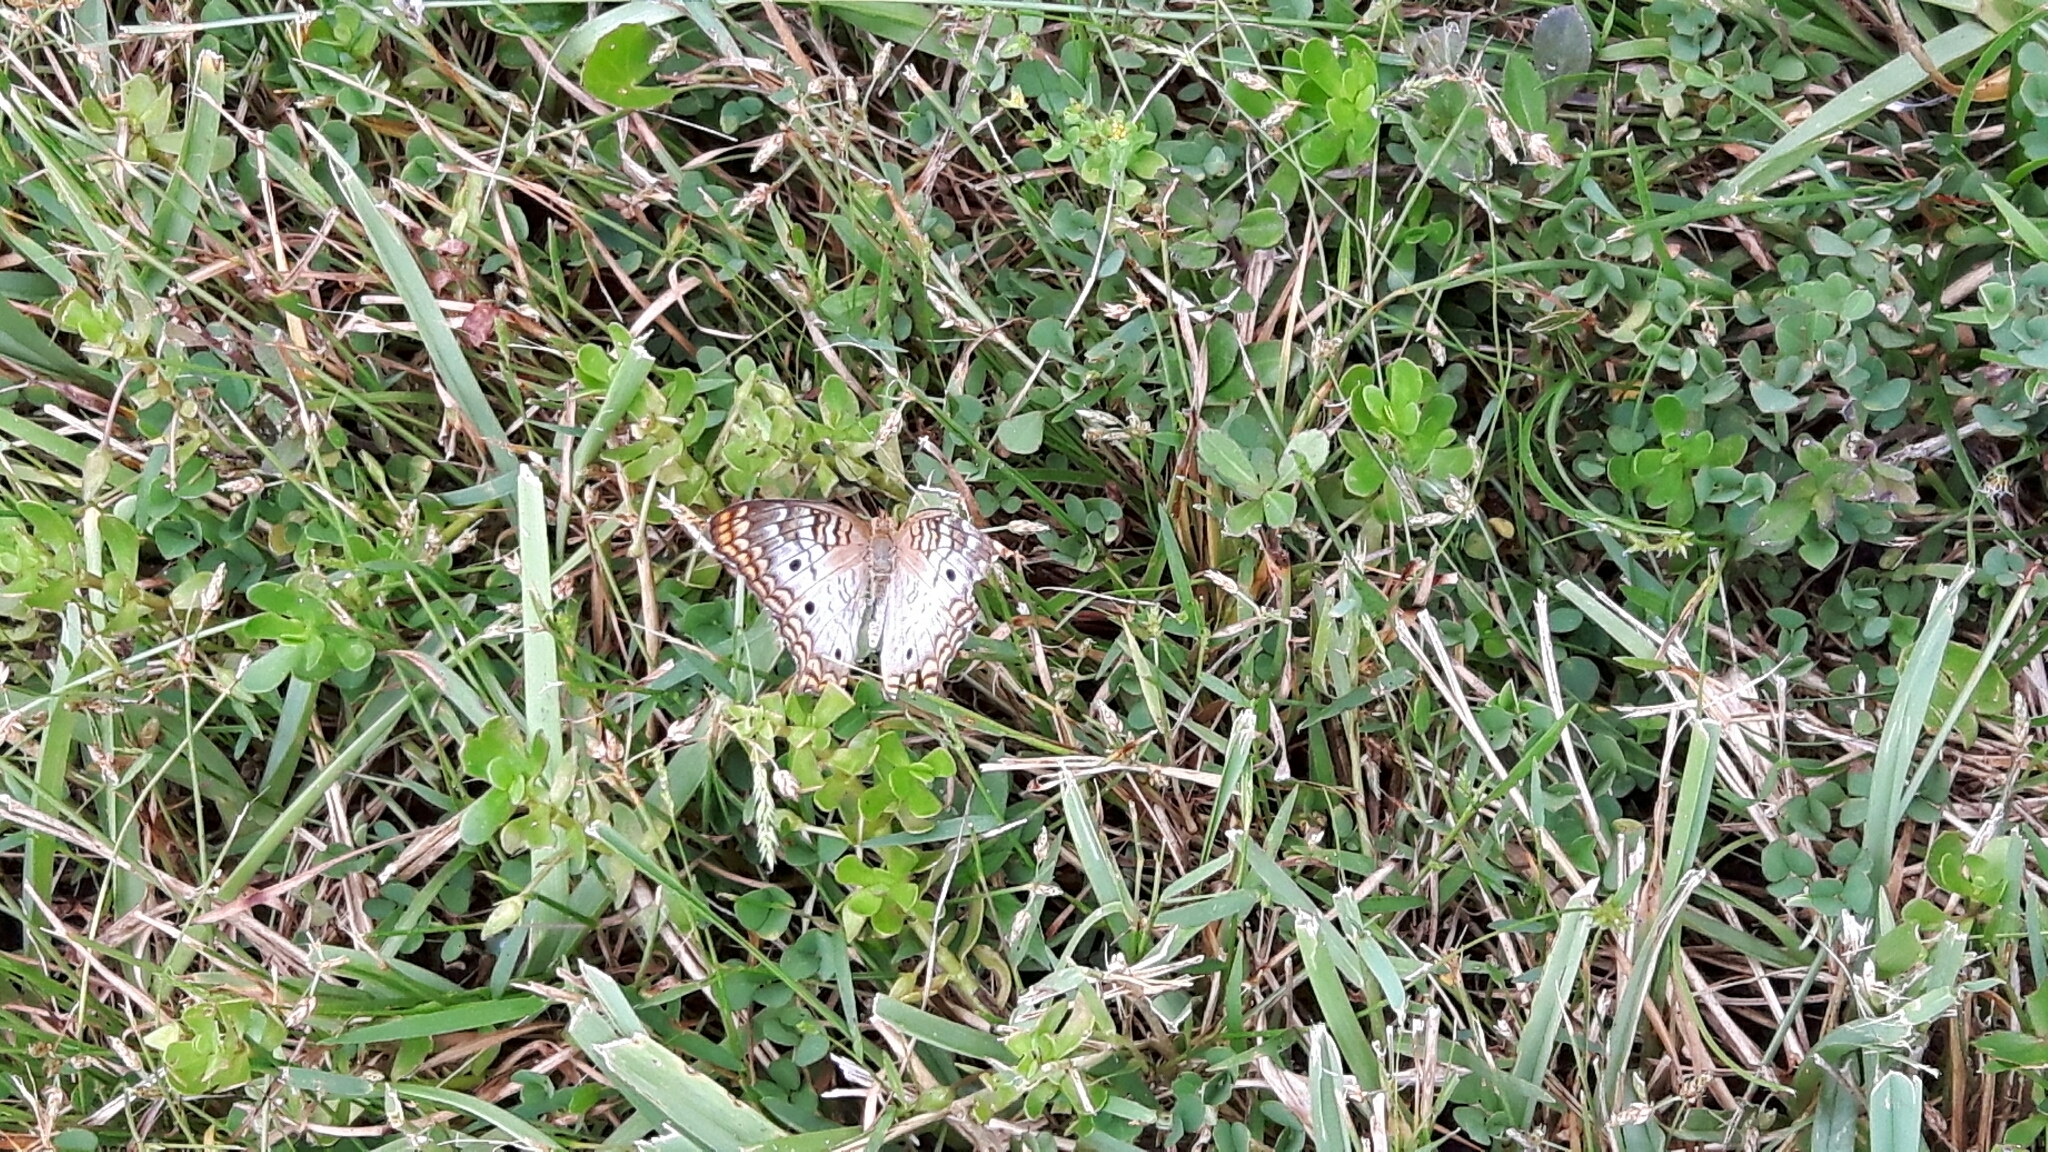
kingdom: Animalia
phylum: Arthropoda
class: Insecta
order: Lepidoptera
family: Nymphalidae
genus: Anartia
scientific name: Anartia jatrophae
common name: White peacock
